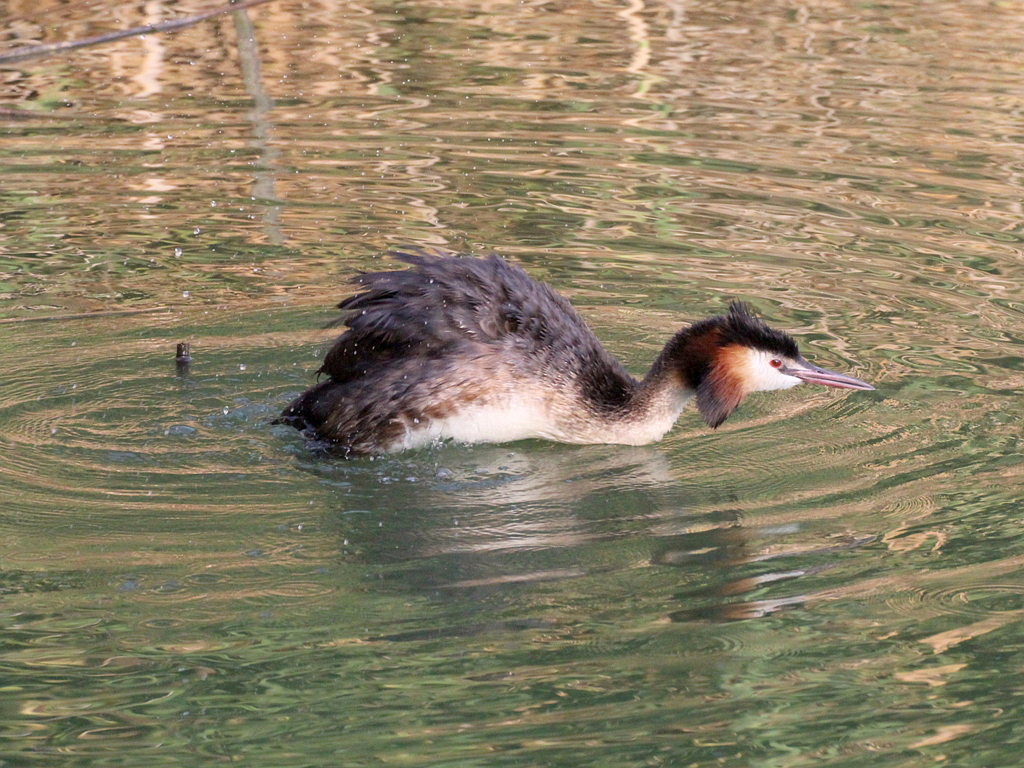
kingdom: Animalia
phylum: Chordata
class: Aves
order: Podicipediformes
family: Podicipedidae
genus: Podiceps
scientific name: Podiceps cristatus
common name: Great crested grebe
